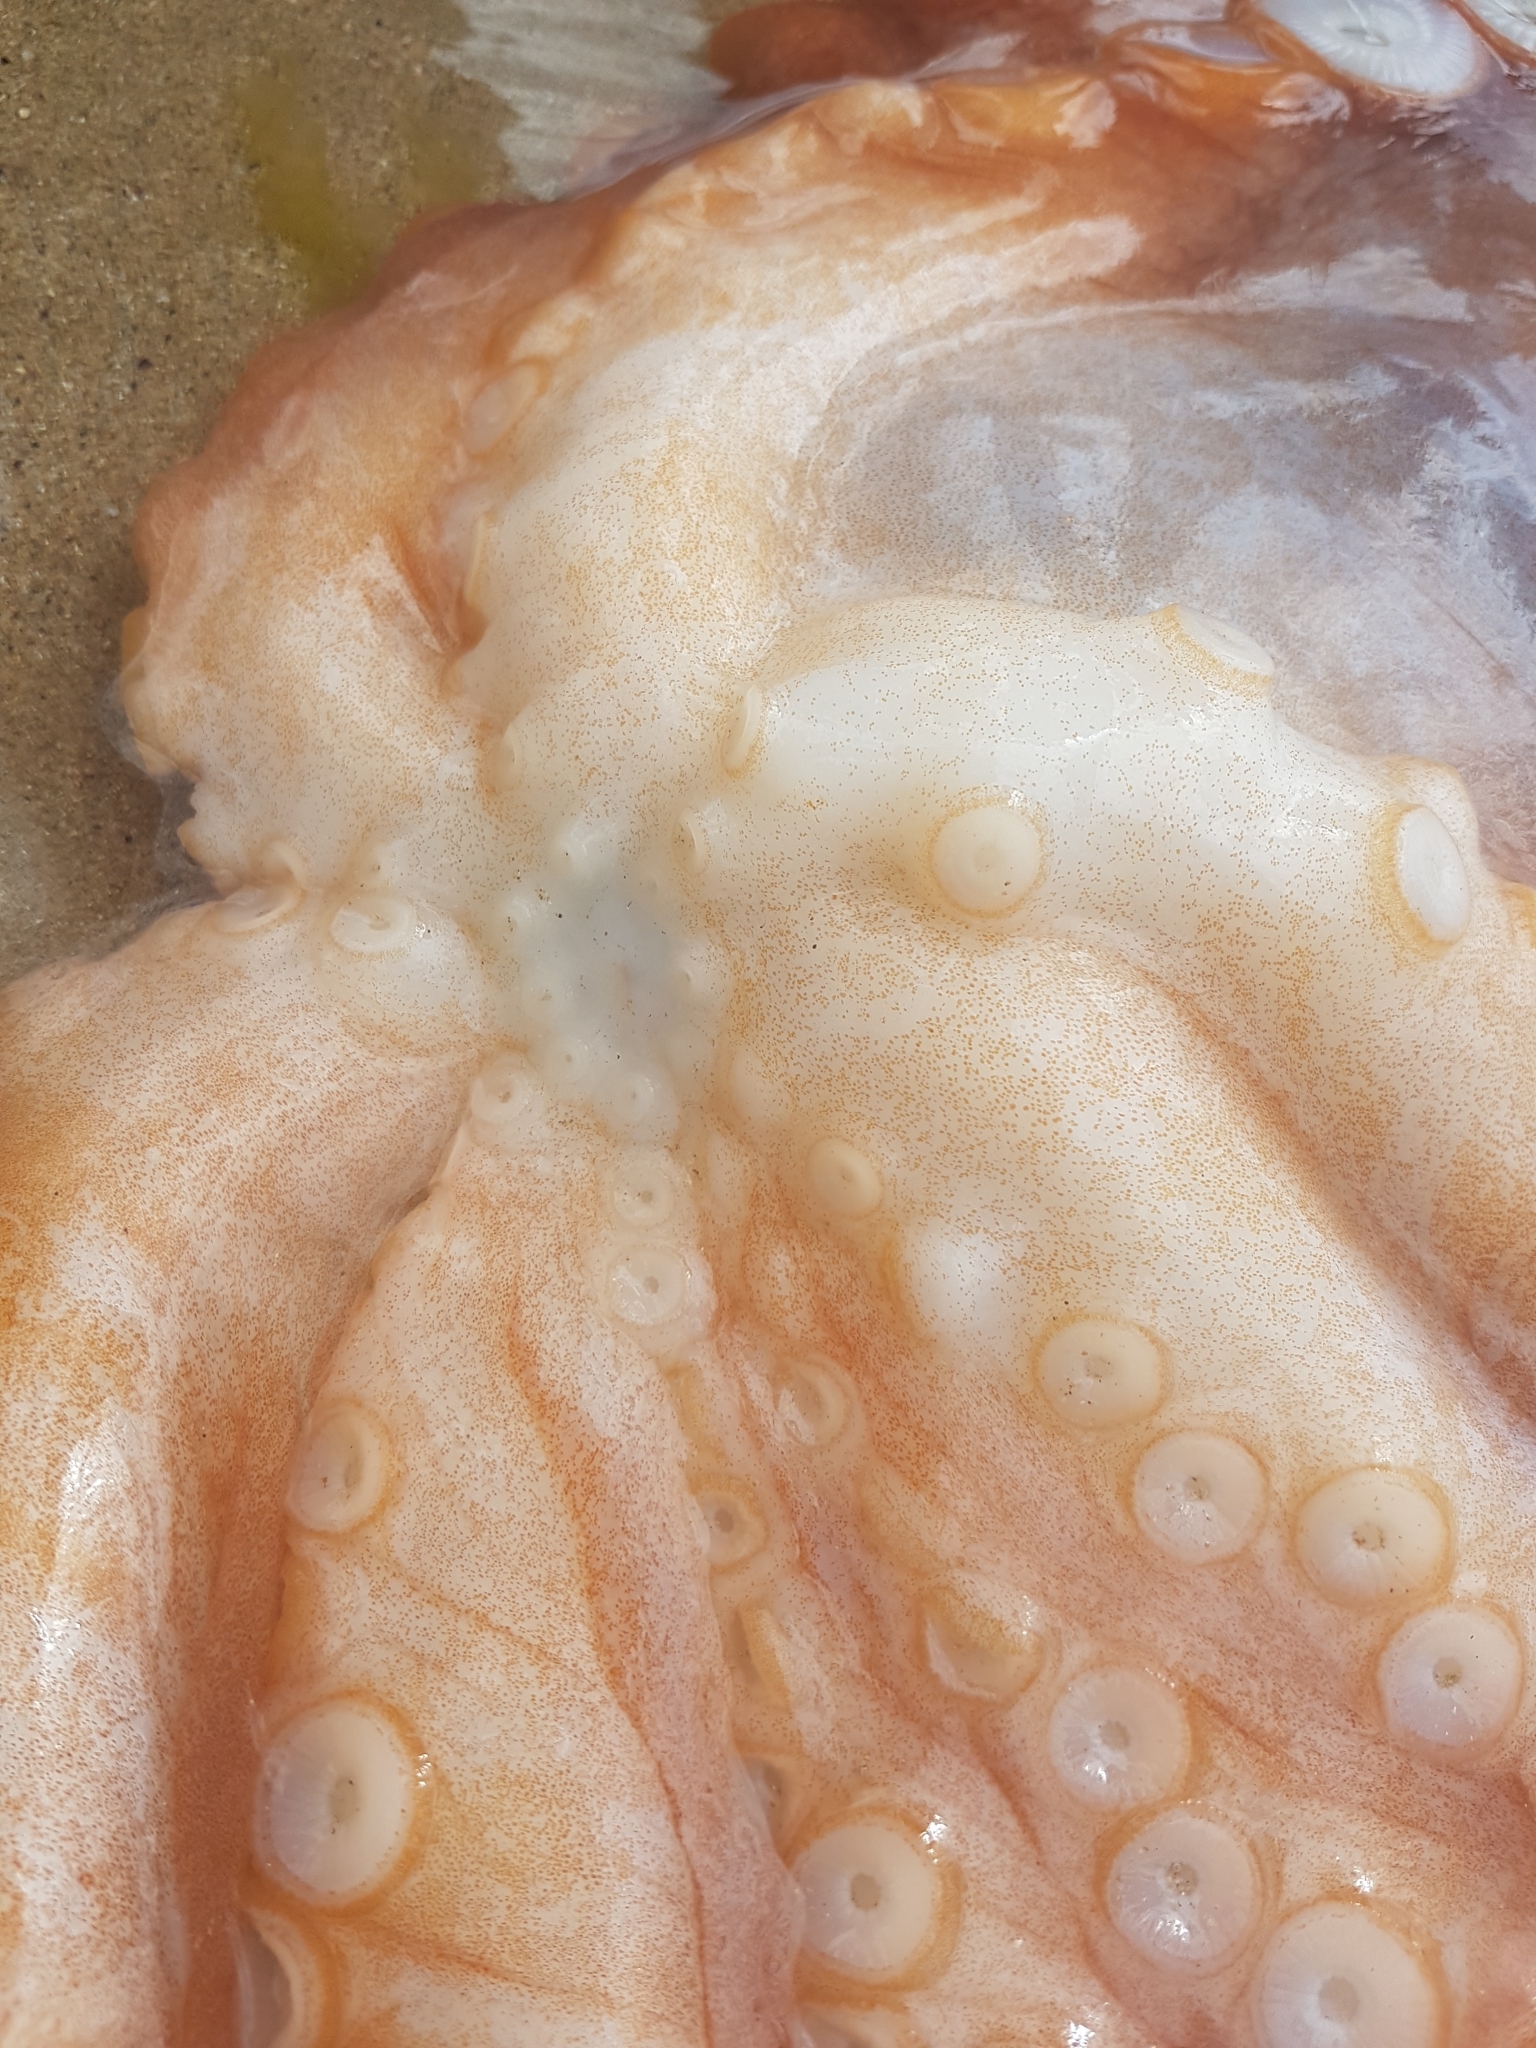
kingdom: Animalia
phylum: Mollusca
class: Cephalopoda
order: Octopoda
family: Octopodidae
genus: Macroctopus
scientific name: Macroctopus maorum
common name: Maori octopus
